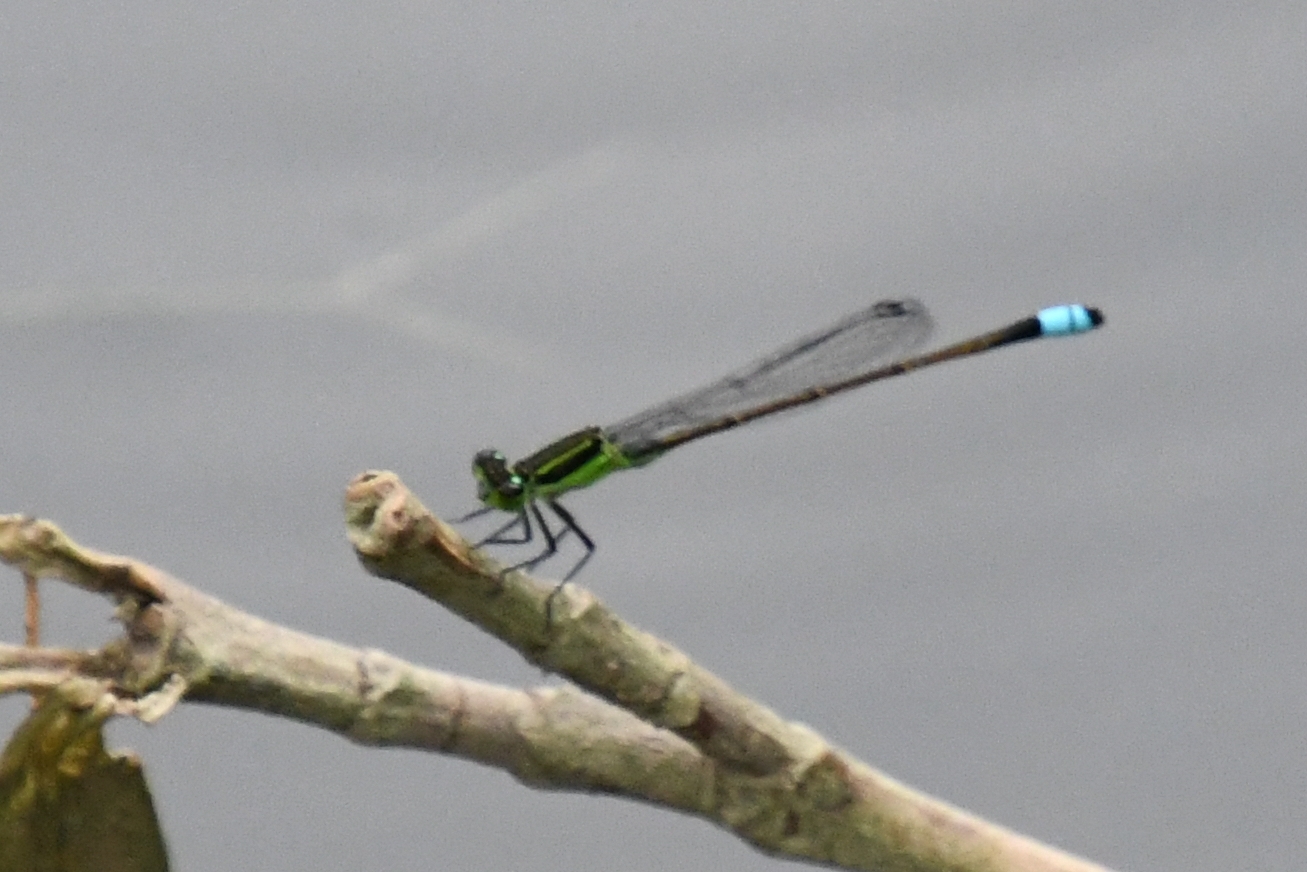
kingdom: Animalia
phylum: Arthropoda
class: Insecta
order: Odonata
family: Coenagrionidae
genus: Ischnura
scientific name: Ischnura ramburii
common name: Rambur's forktail
